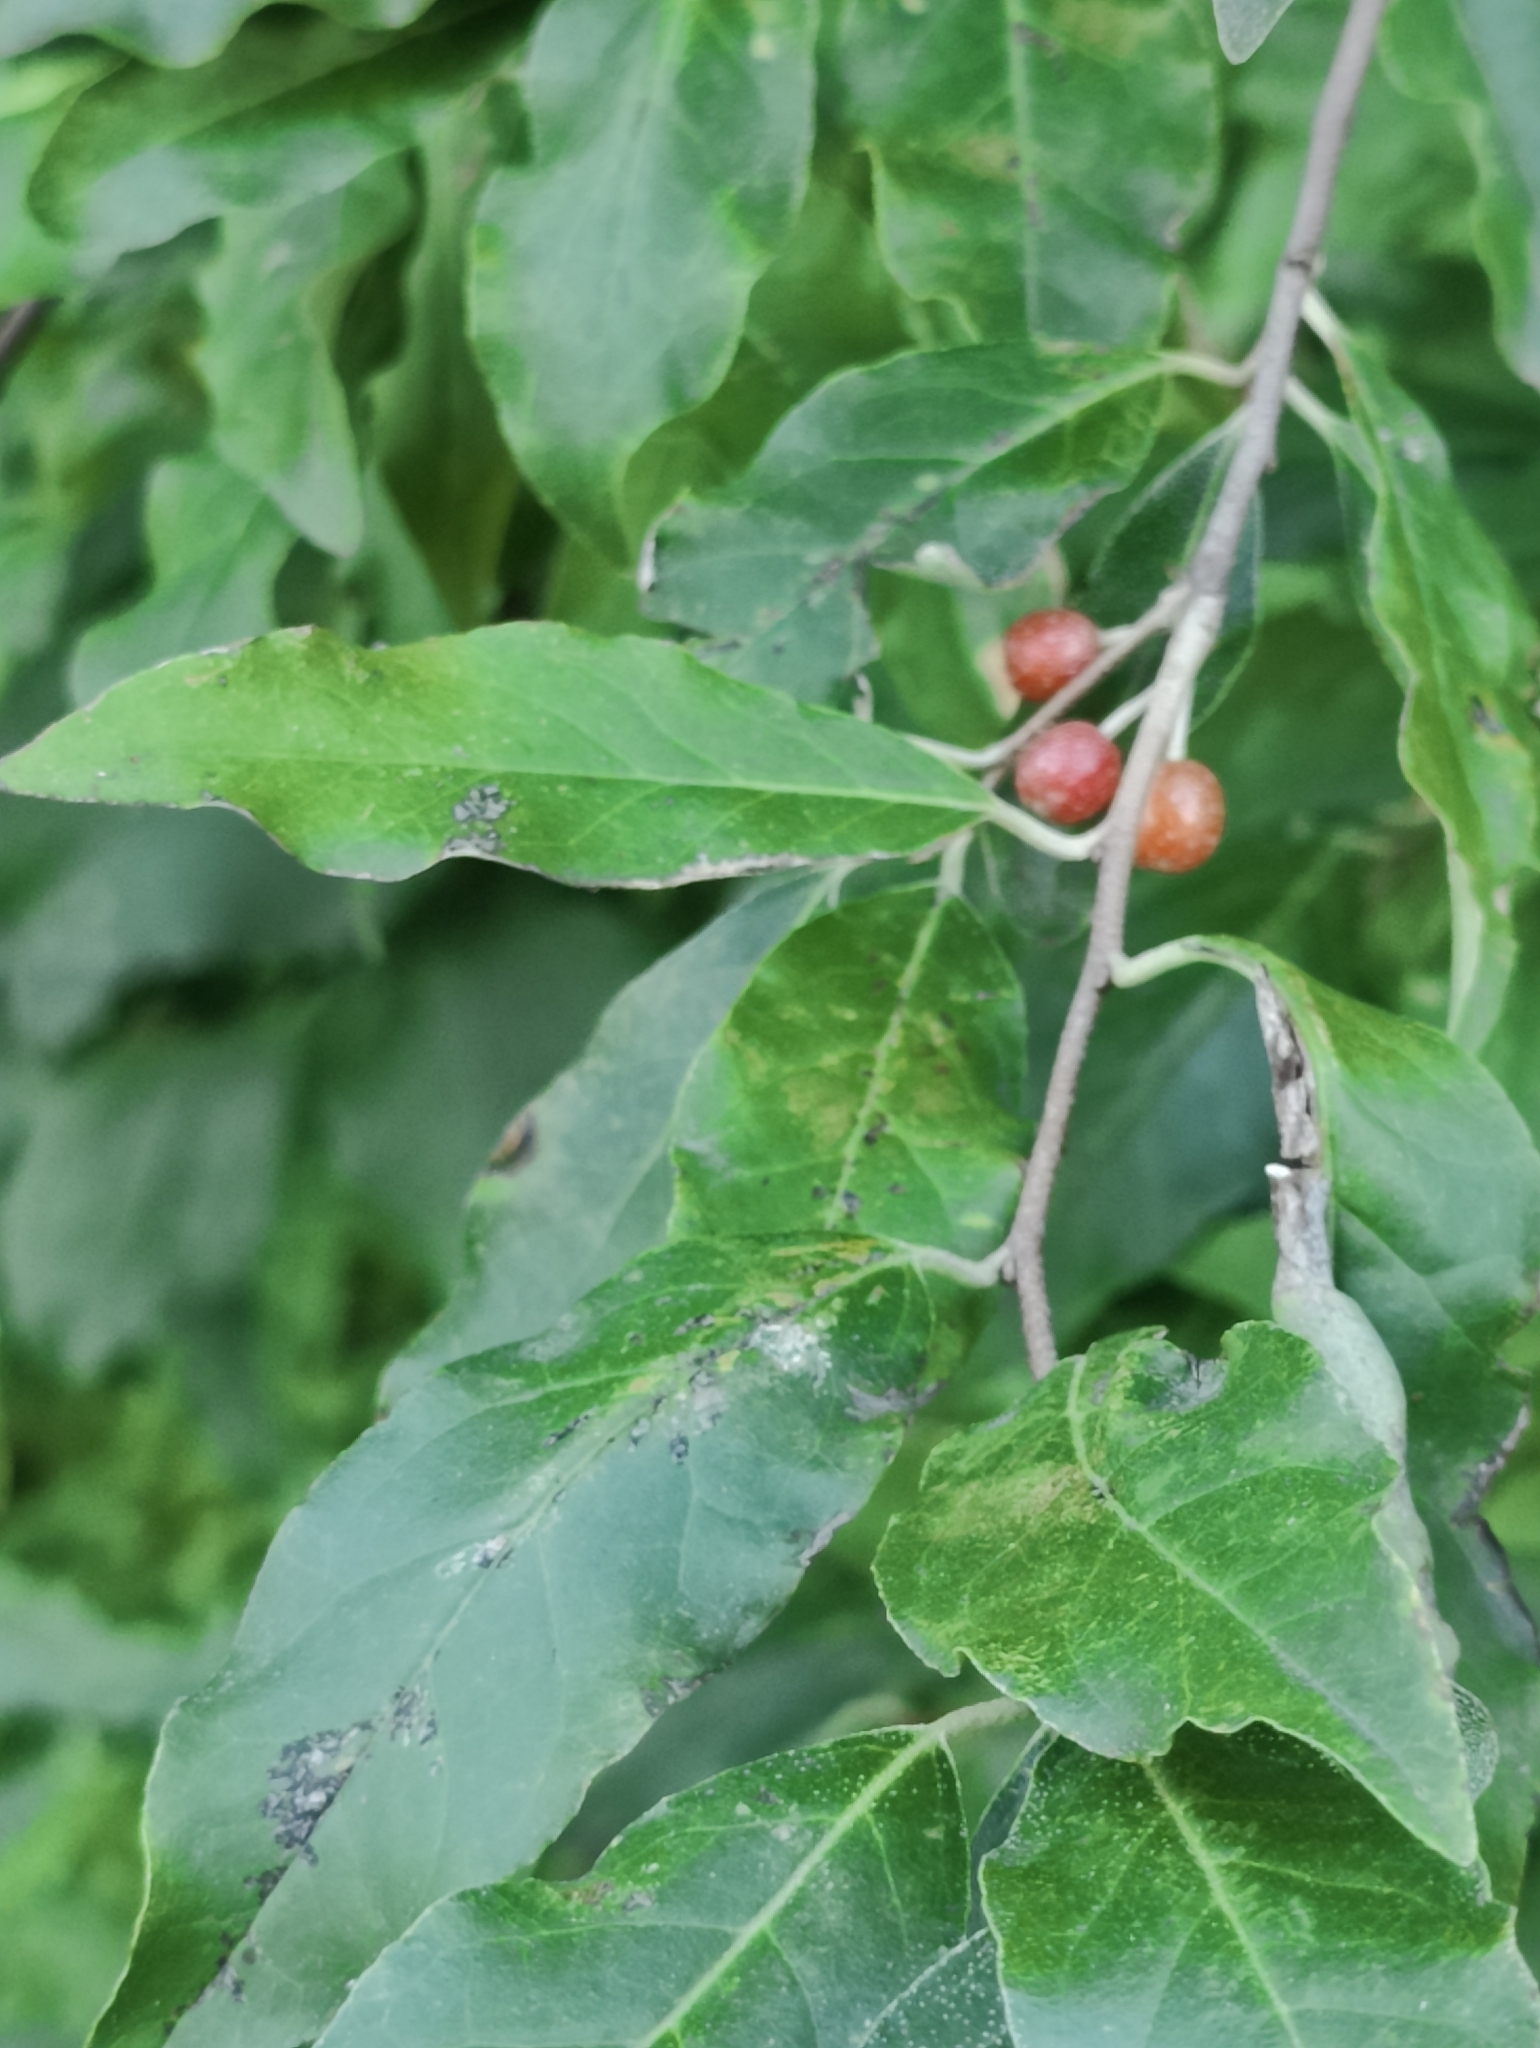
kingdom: Plantae
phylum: Tracheophyta
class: Magnoliopsida
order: Rosales
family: Elaeagnaceae
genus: Elaeagnus
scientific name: Elaeagnus umbellata
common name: Autumn olive
